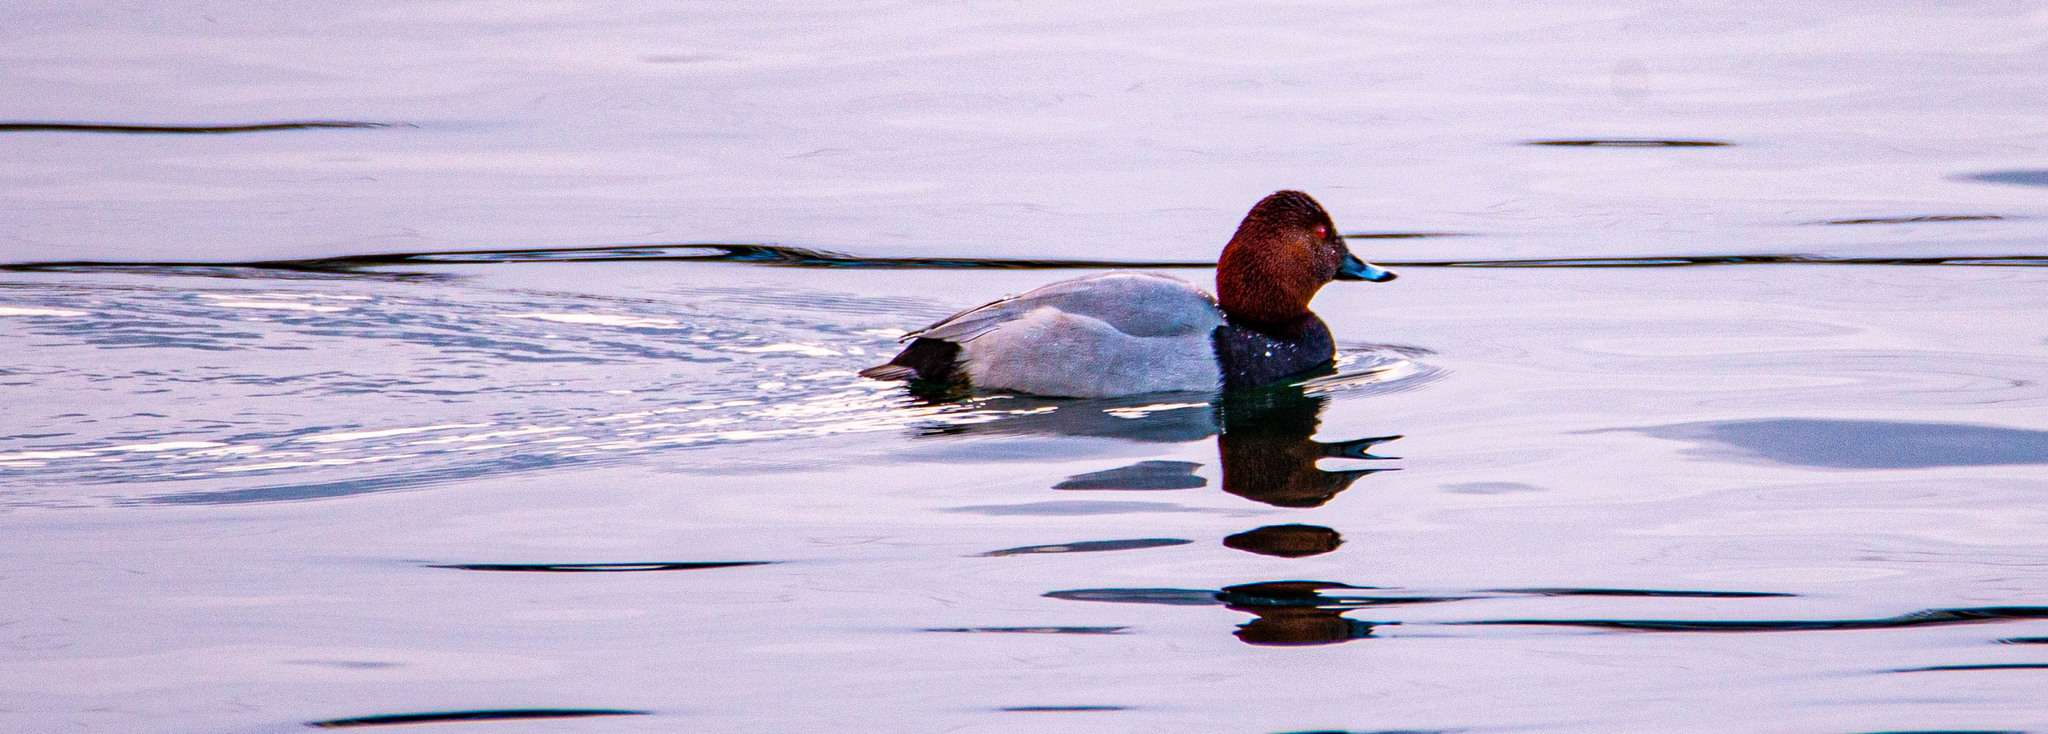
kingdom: Animalia
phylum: Chordata
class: Aves
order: Anseriformes
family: Anatidae
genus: Aythya
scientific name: Aythya ferina
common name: Common pochard
